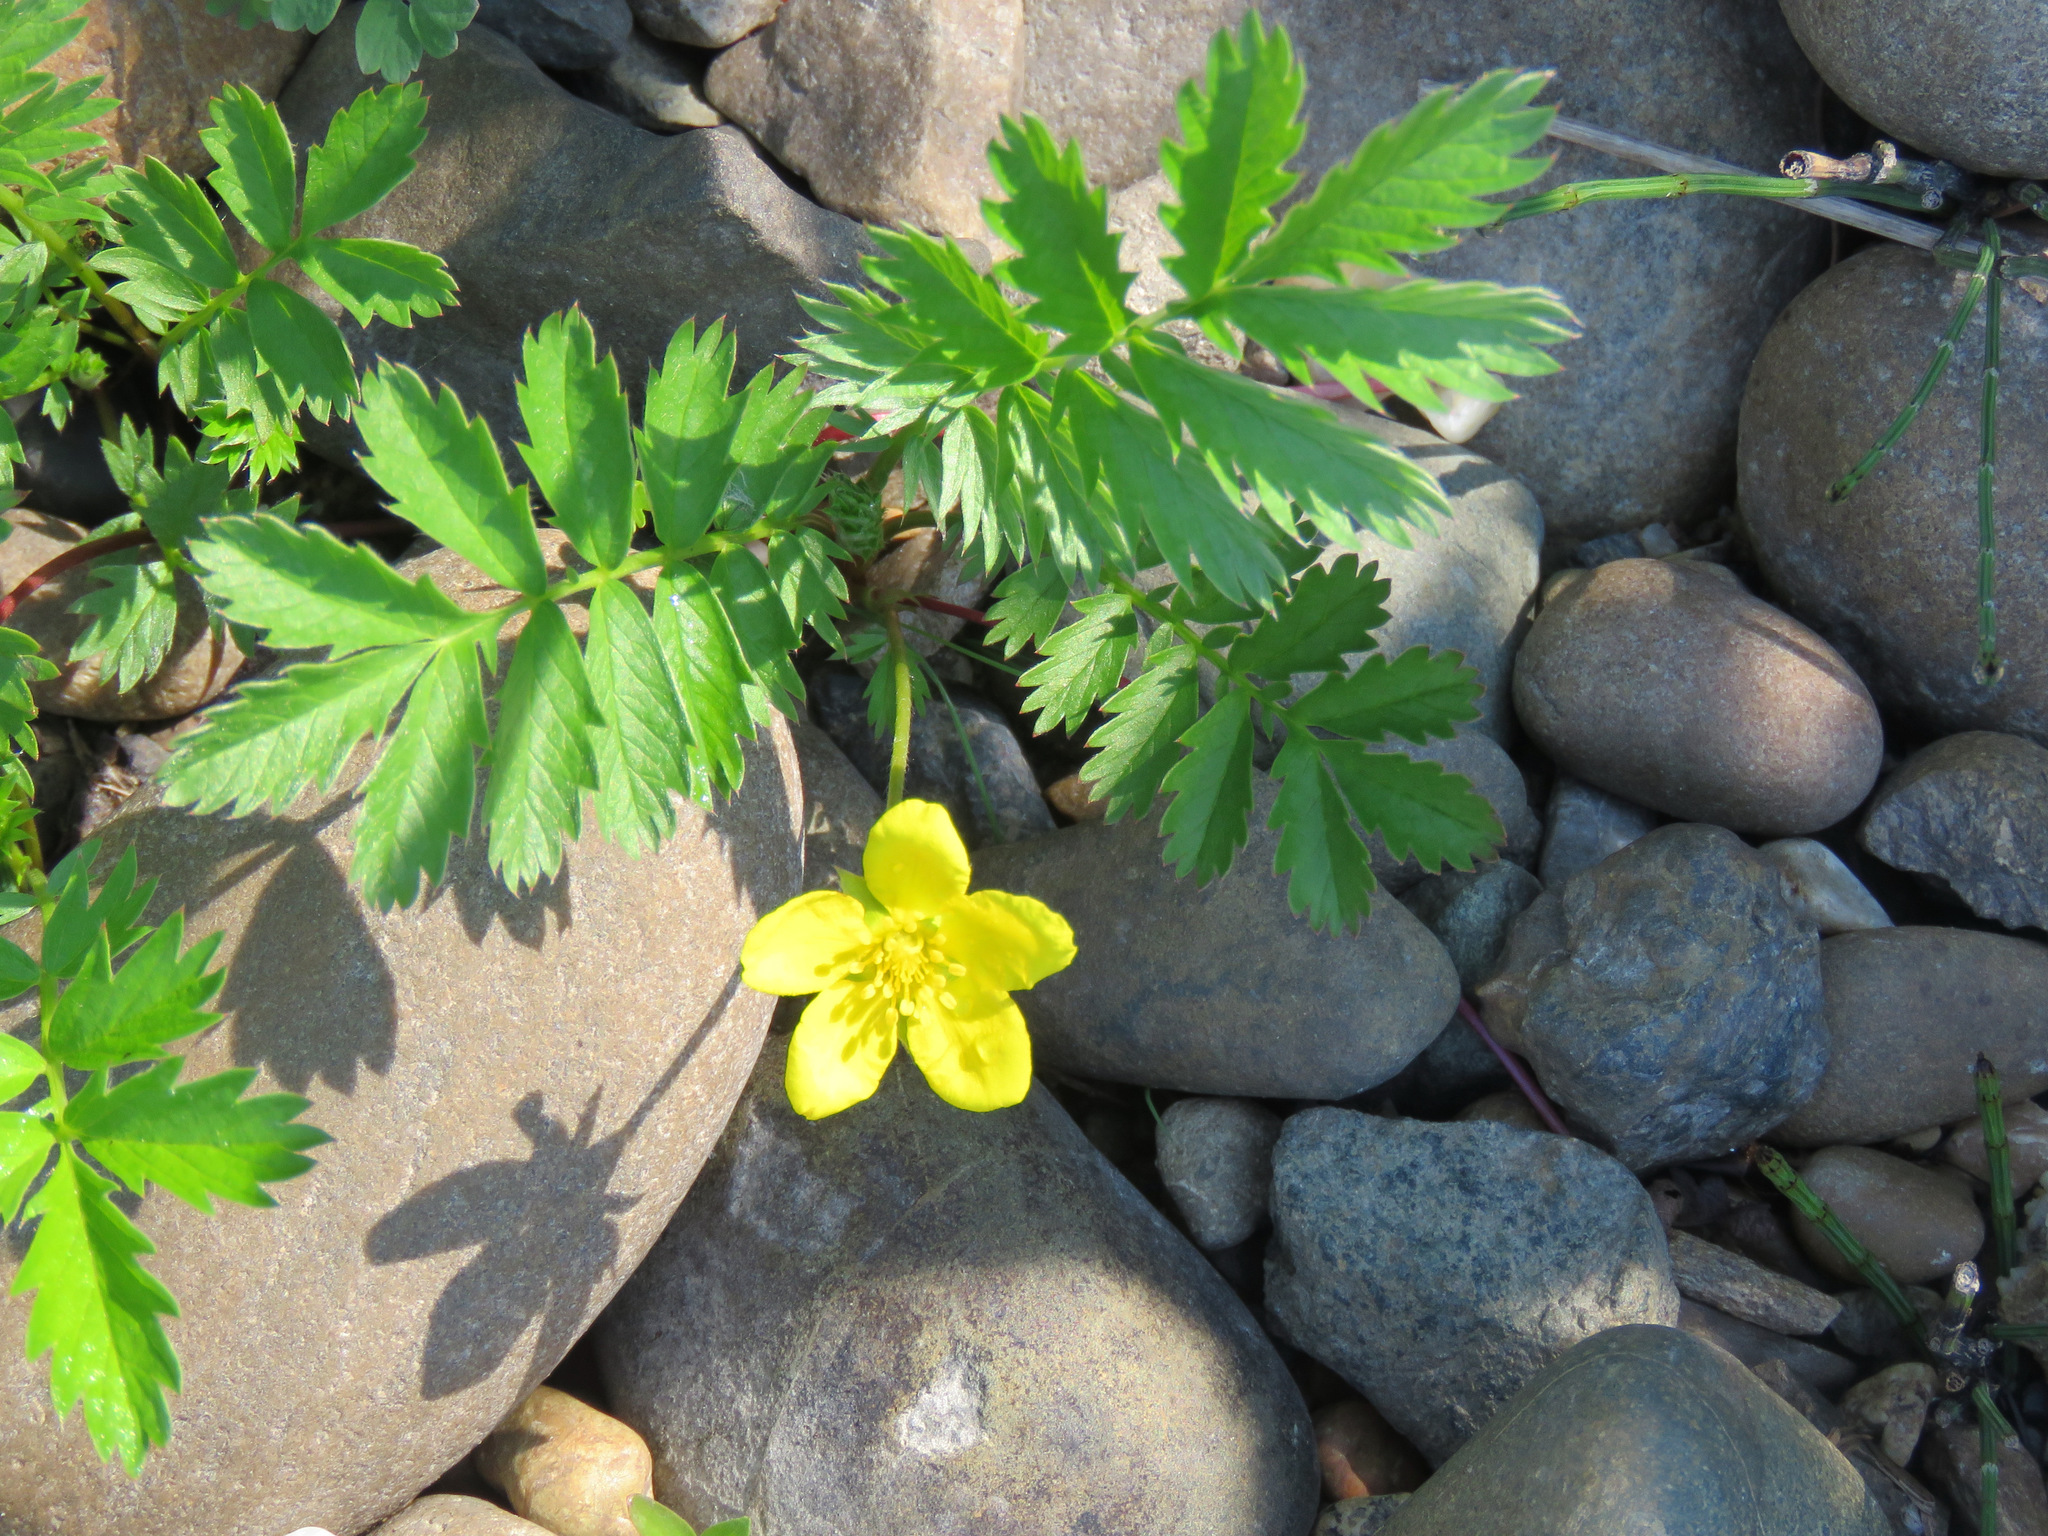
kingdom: Plantae
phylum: Tracheophyta
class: Magnoliopsida
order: Rosales
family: Rosaceae
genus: Argentina
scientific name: Argentina anserina
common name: Common silverweed
